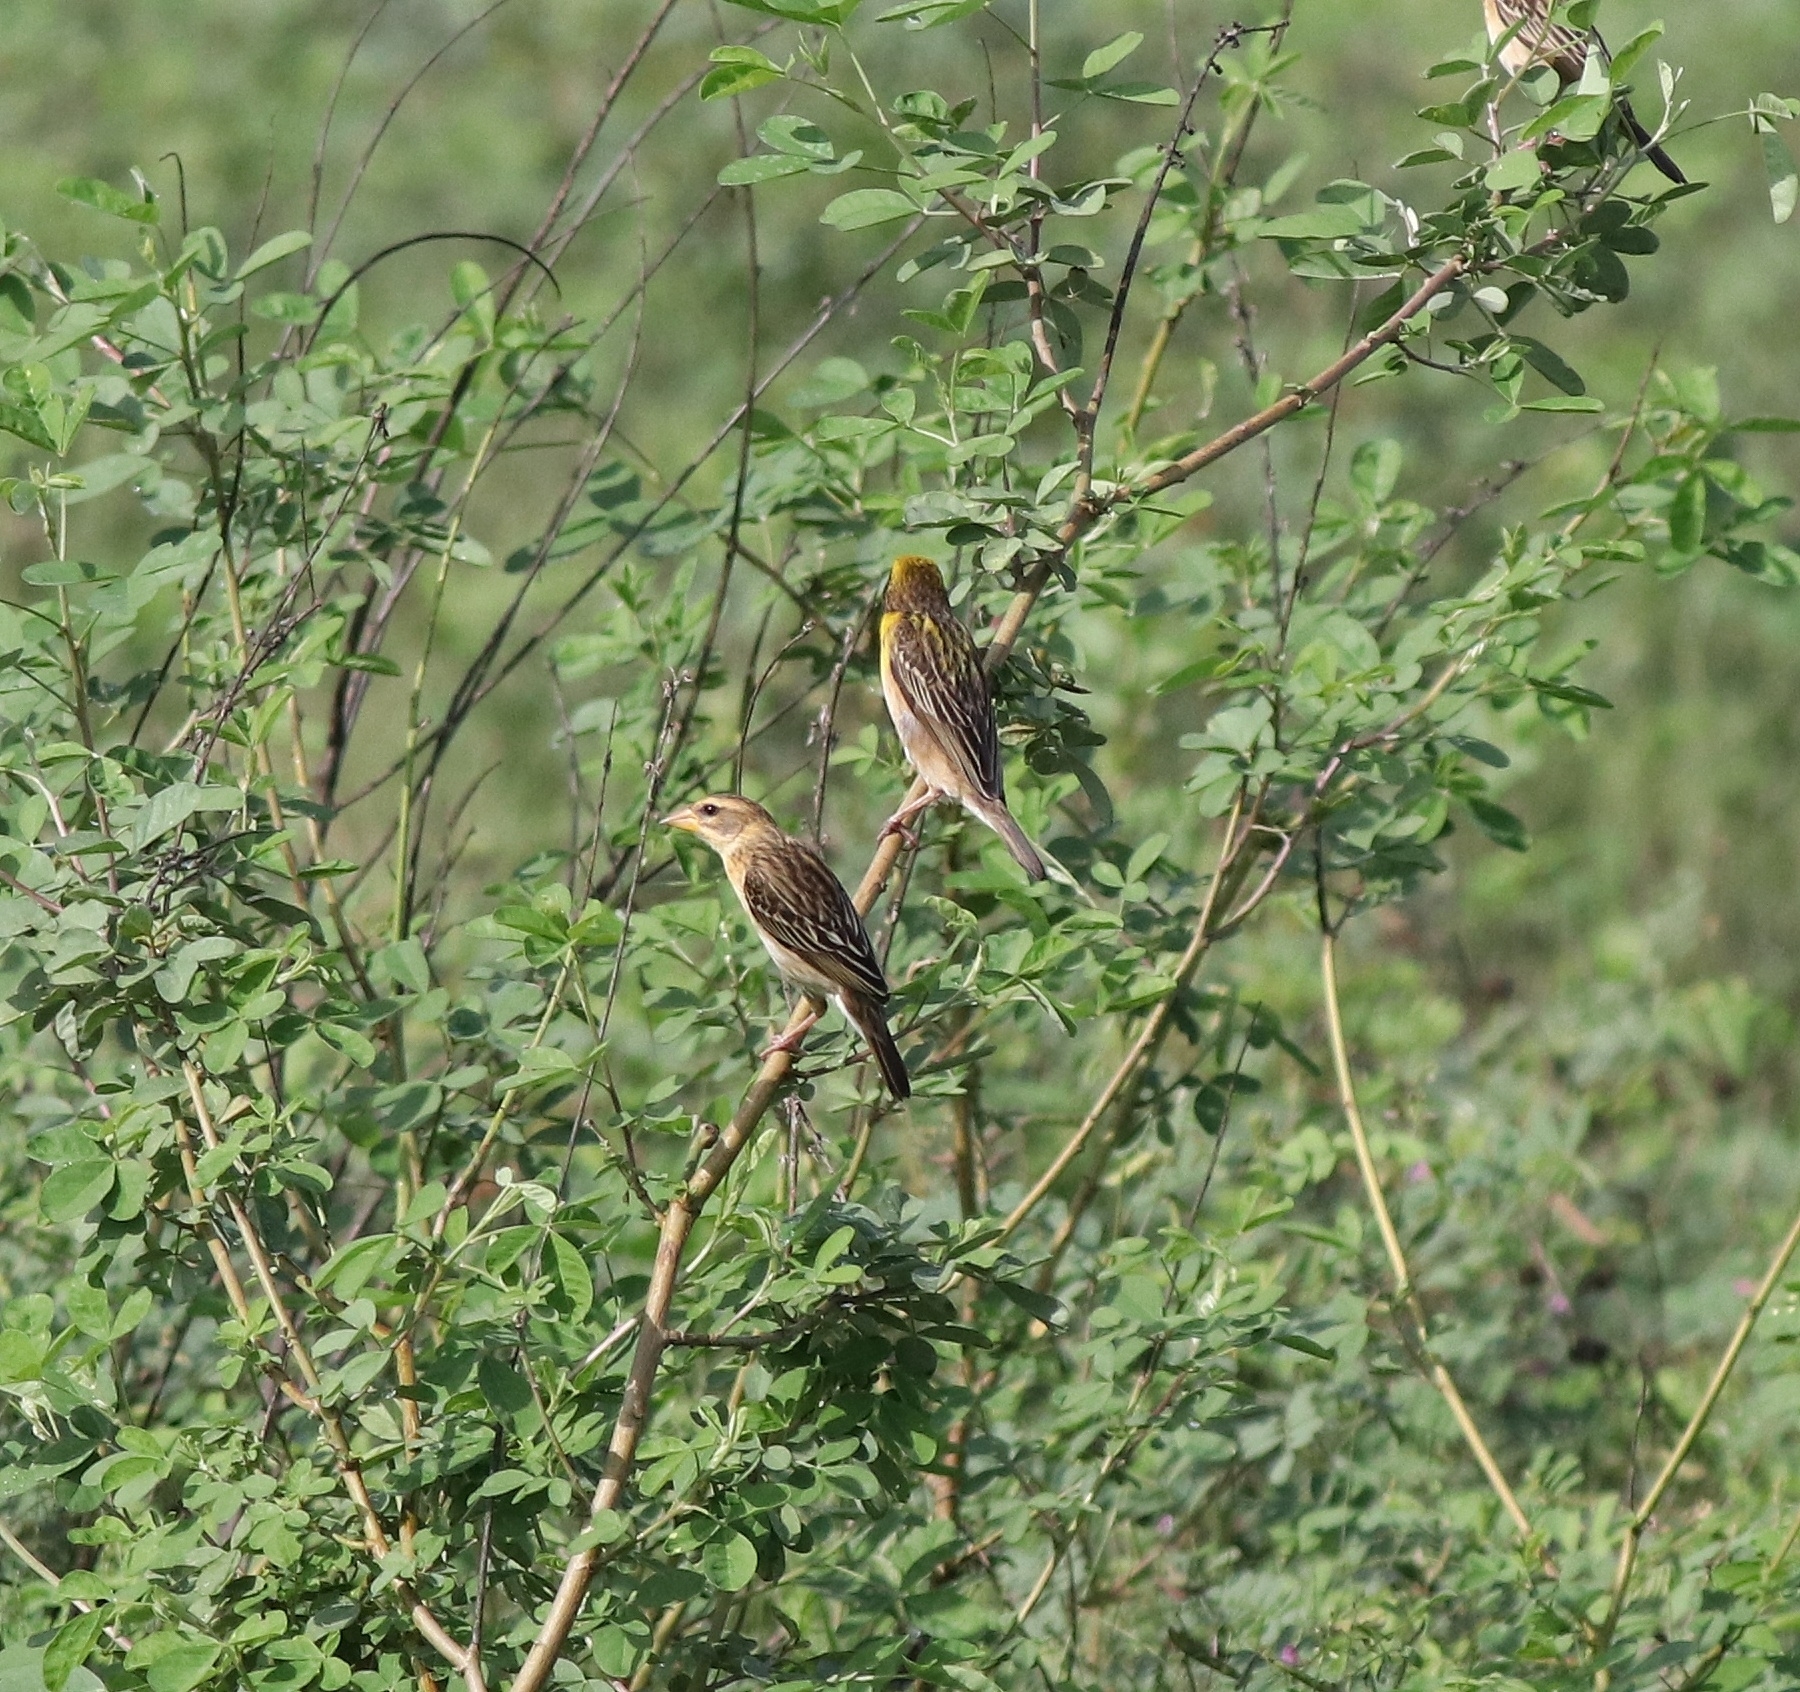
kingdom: Animalia
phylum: Chordata
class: Aves
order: Passeriformes
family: Ploceidae
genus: Ploceus
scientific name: Ploceus philippinus
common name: Baya weaver
